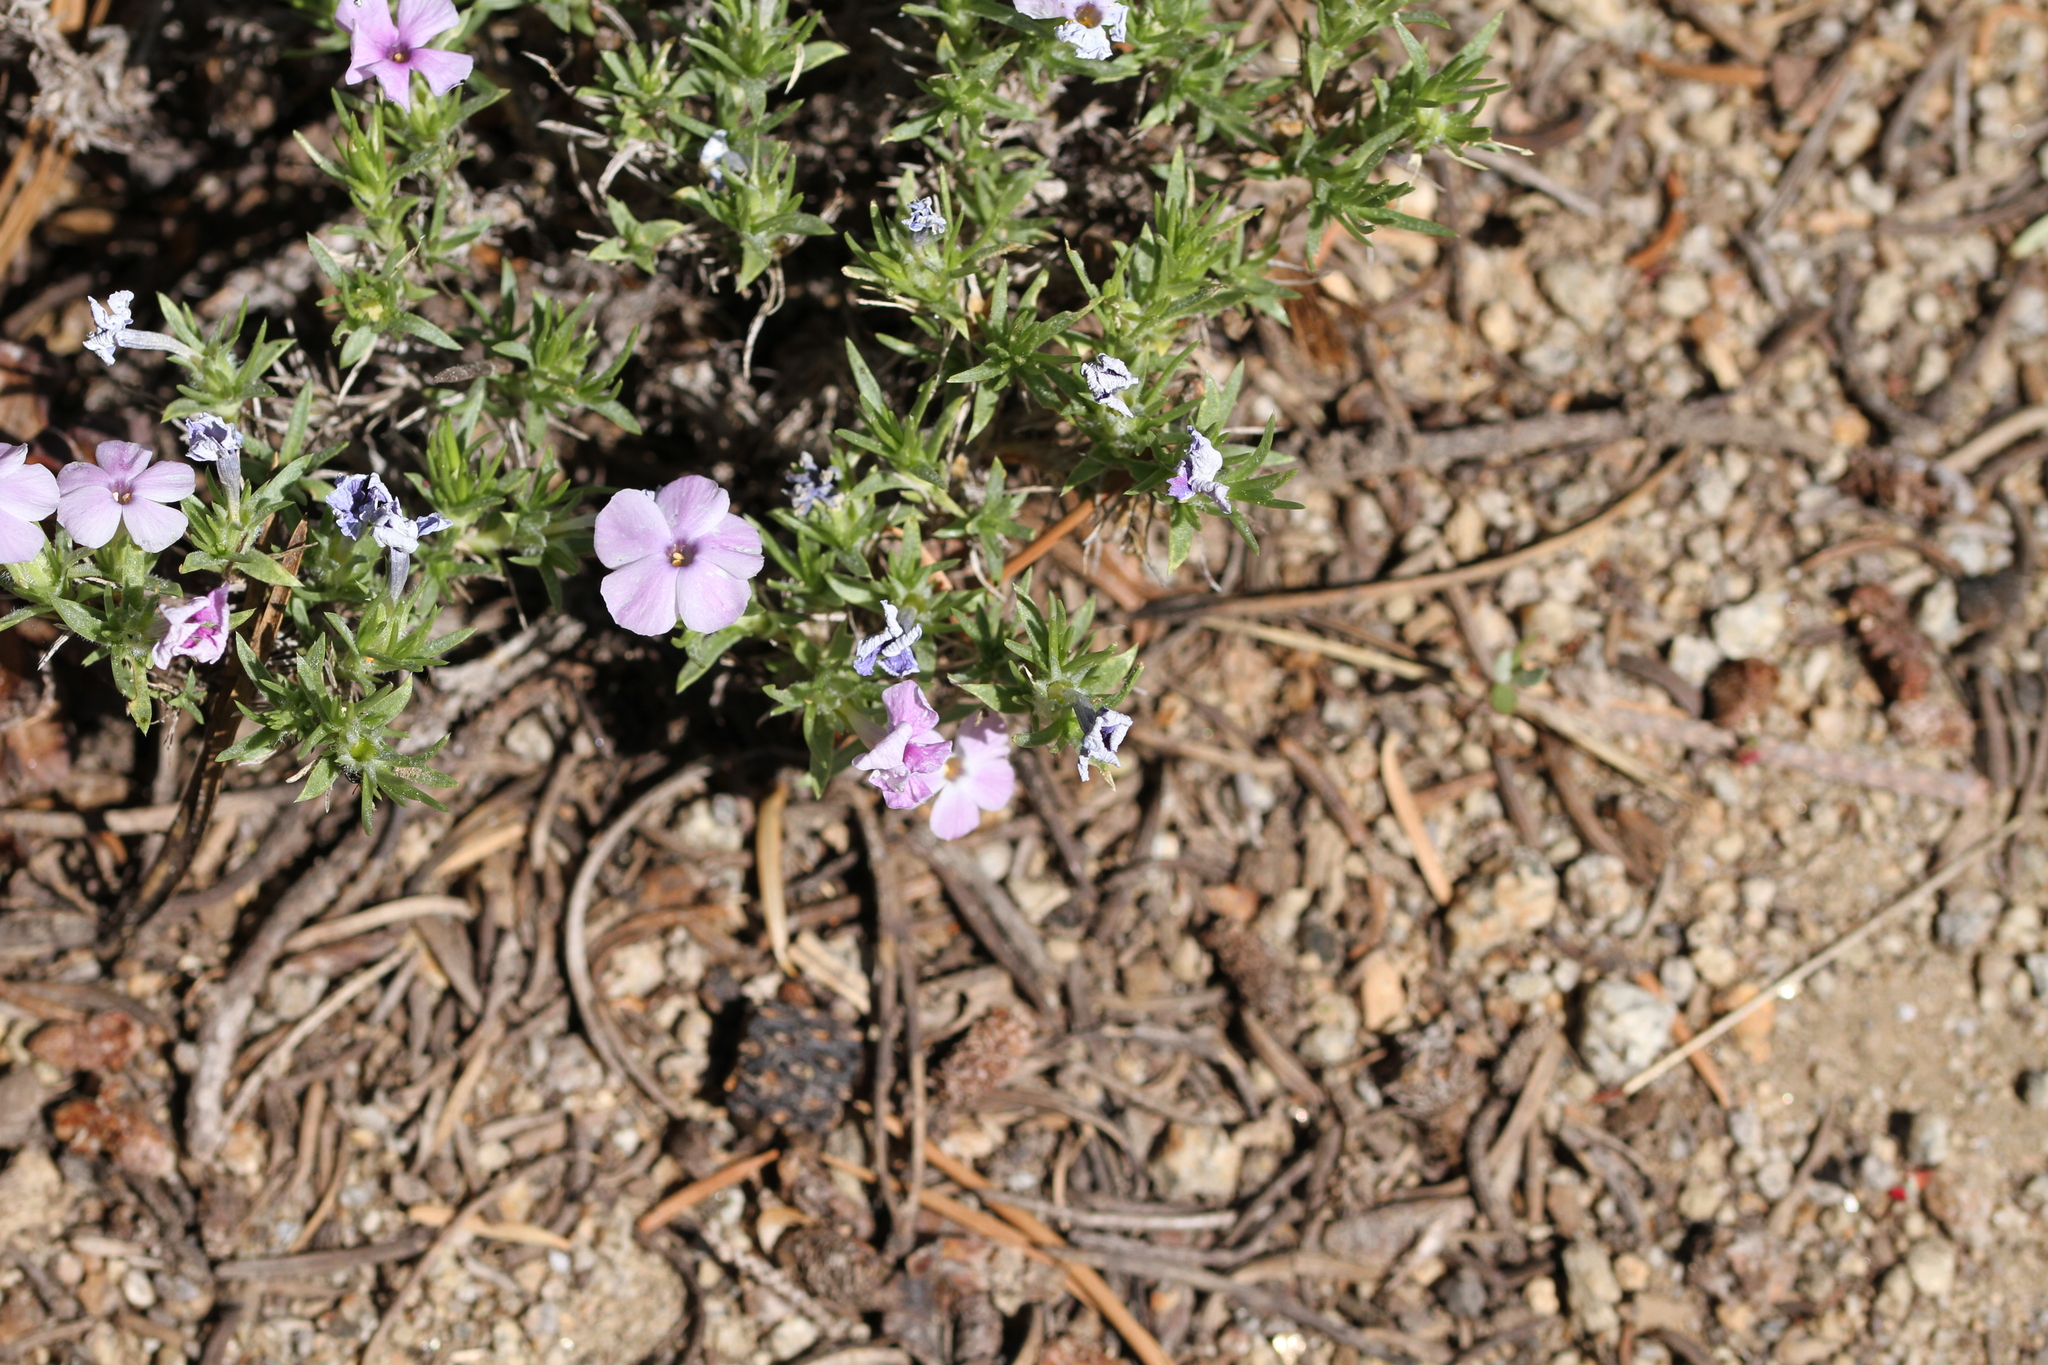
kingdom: Plantae
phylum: Tracheophyta
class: Magnoliopsida
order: Ericales
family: Polemoniaceae
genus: Phlox
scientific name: Phlox diffusa
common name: Mat phlox
